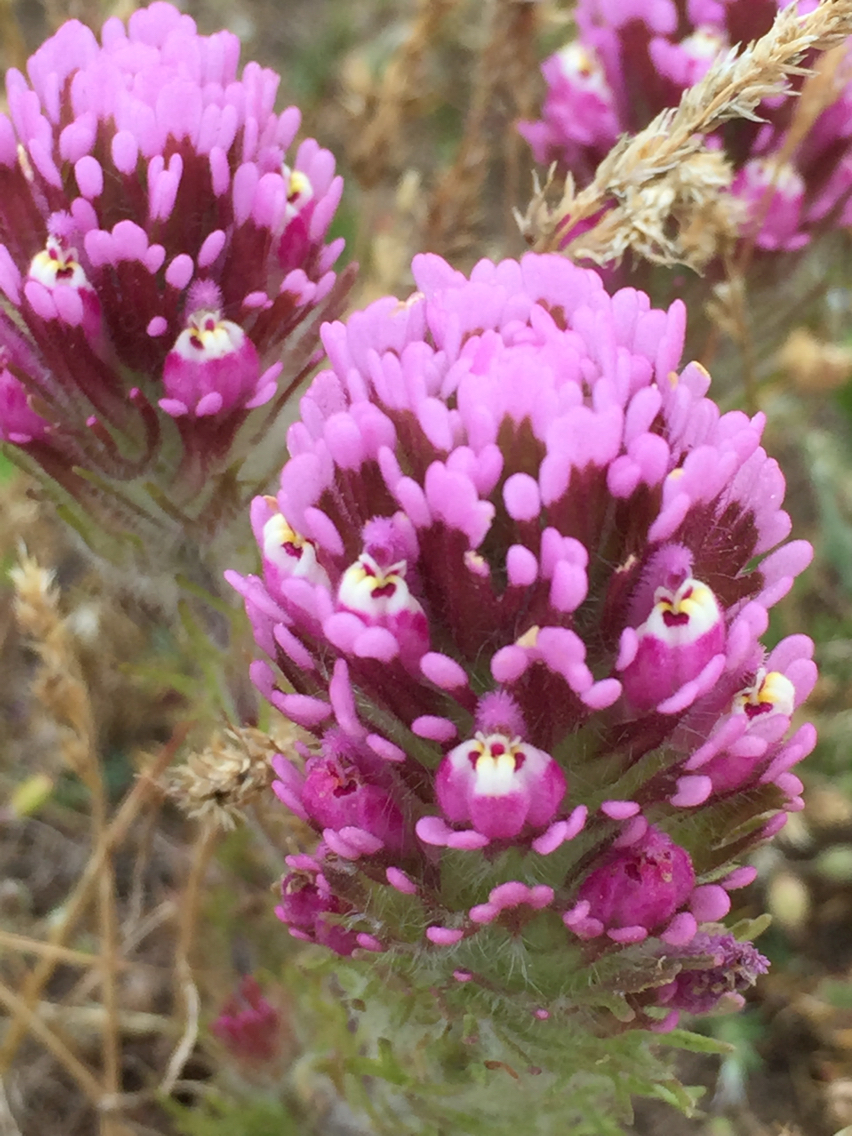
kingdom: Plantae
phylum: Tracheophyta
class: Magnoliopsida
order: Lamiales
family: Orobanchaceae
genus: Castilleja
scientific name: Castilleja exserta
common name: Purple owl-clover
